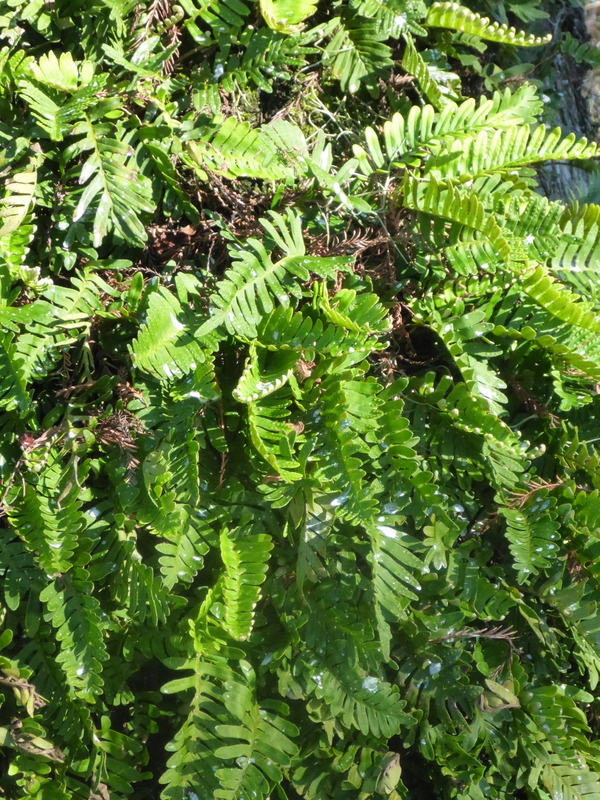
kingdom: Plantae
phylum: Tracheophyta
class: Polypodiopsida
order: Polypodiales
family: Polypodiaceae
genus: Pleopeltis
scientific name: Pleopeltis michauxiana
